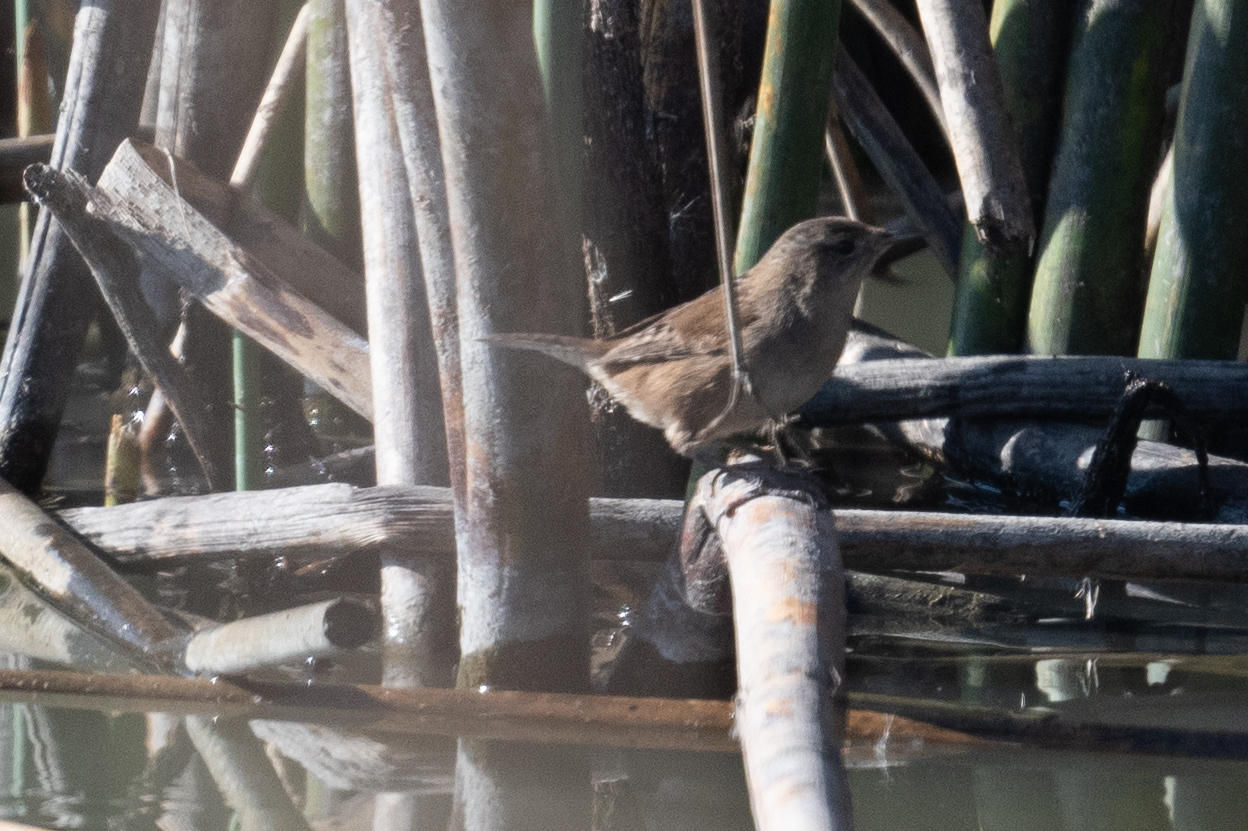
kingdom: Animalia
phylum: Chordata
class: Aves
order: Passeriformes
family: Troglodytidae
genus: Cistothorus
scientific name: Cistothorus palustris
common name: Marsh wren
